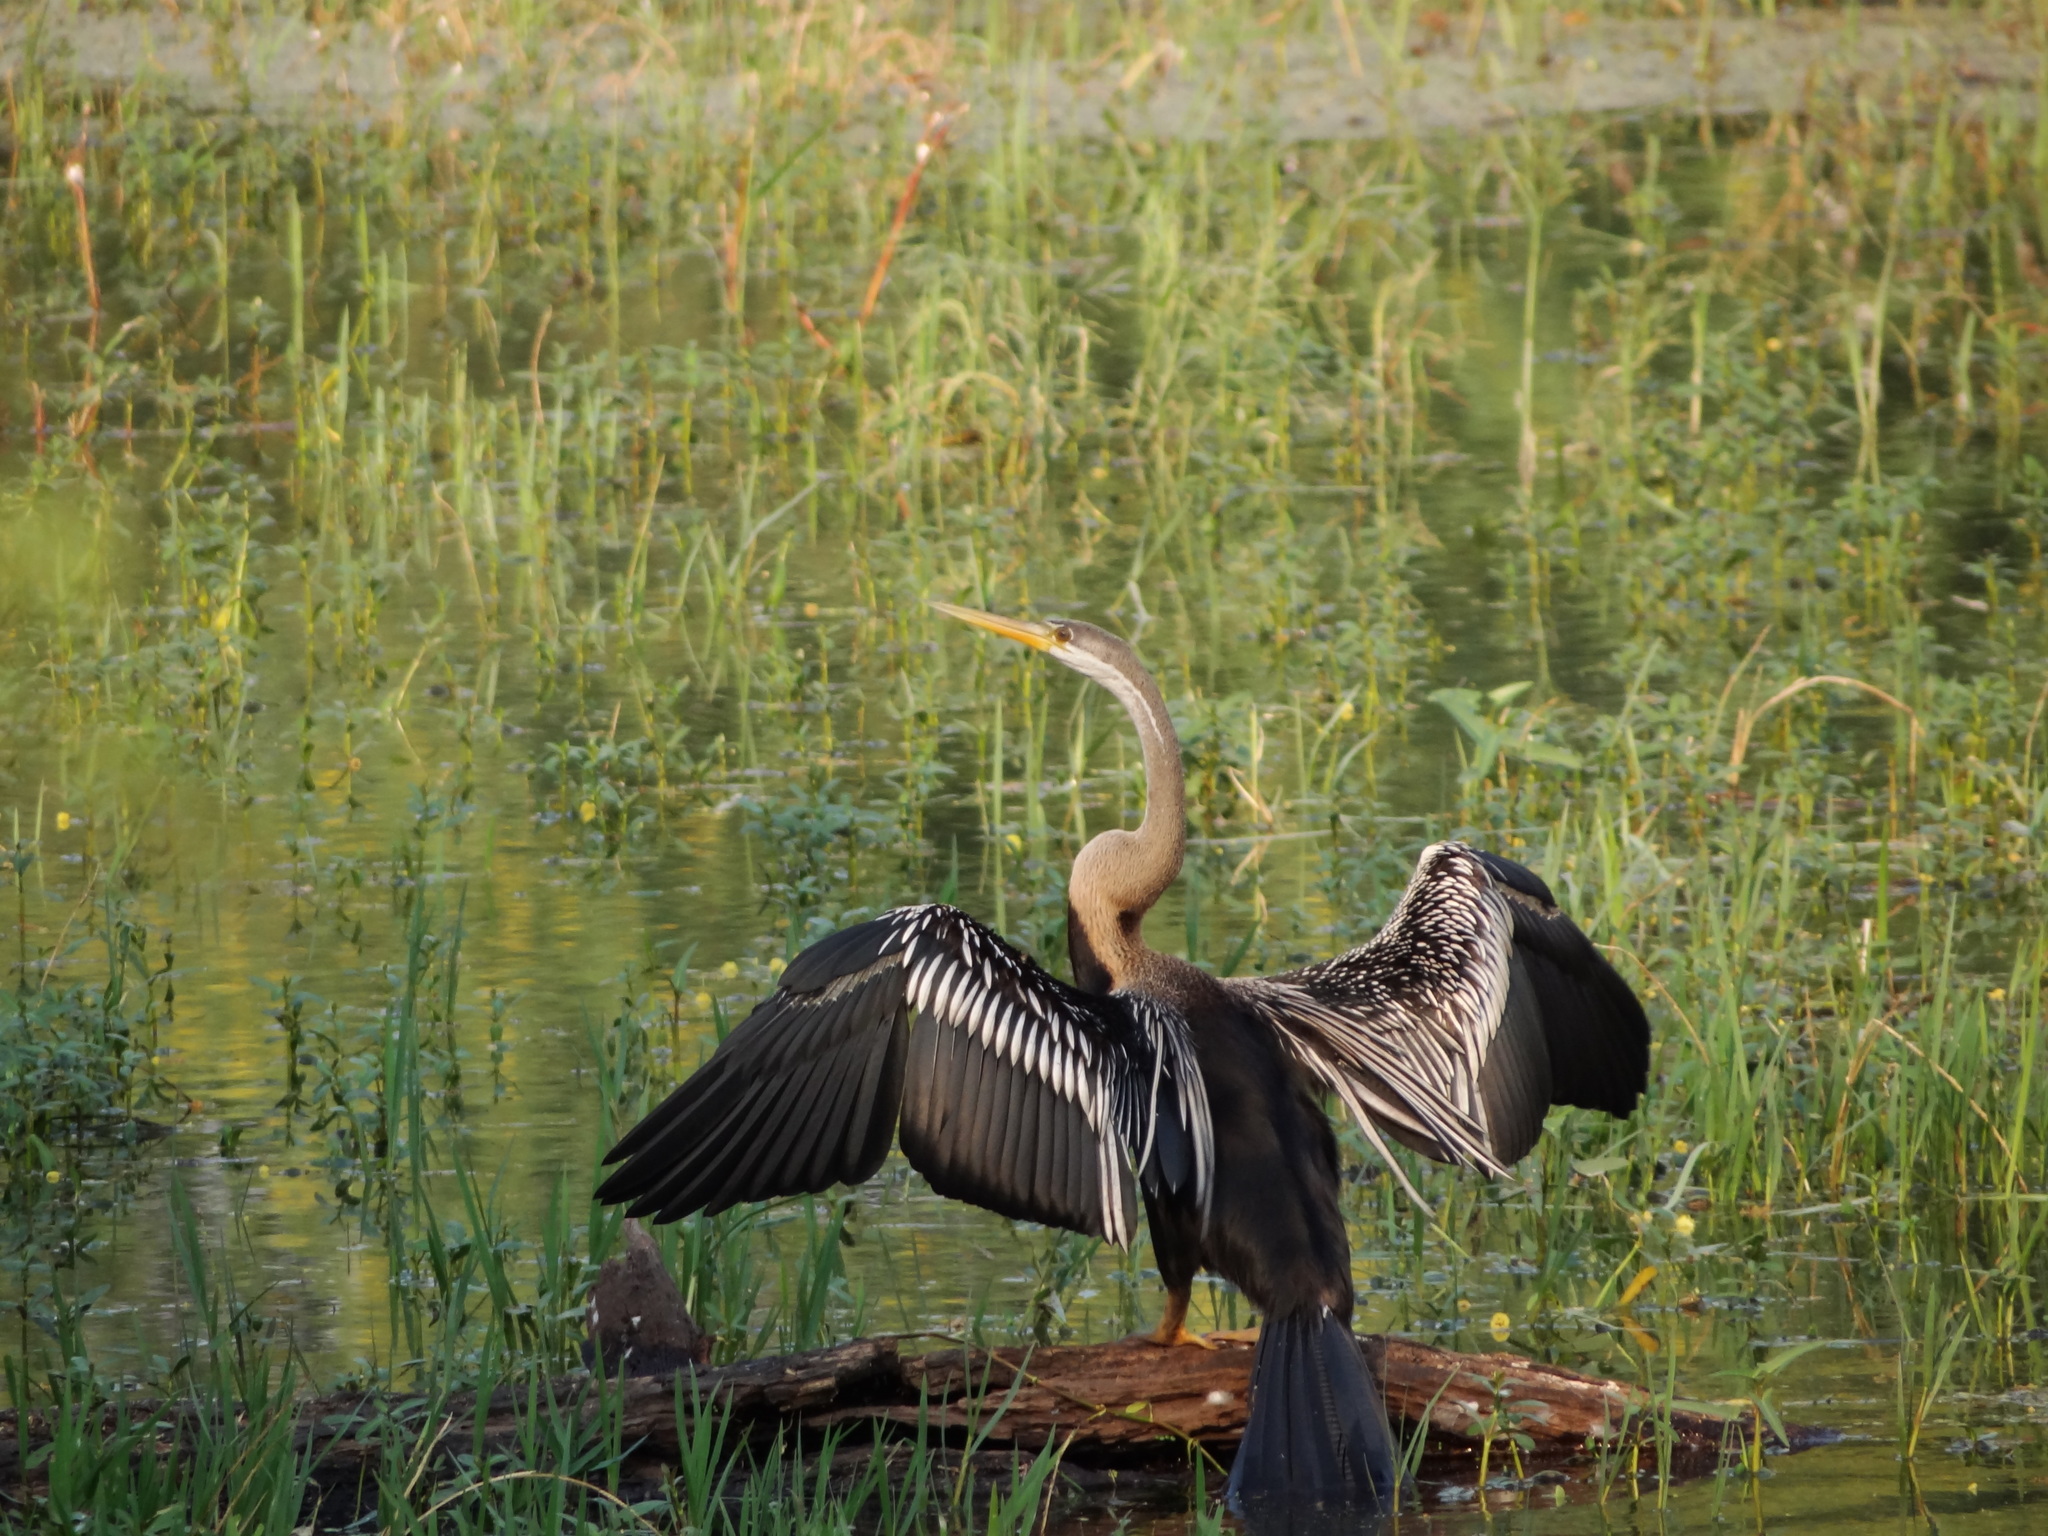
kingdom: Animalia
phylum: Chordata
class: Aves
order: Suliformes
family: Anhingidae
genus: Anhinga
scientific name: Anhinga melanogaster
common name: Oriental darter
